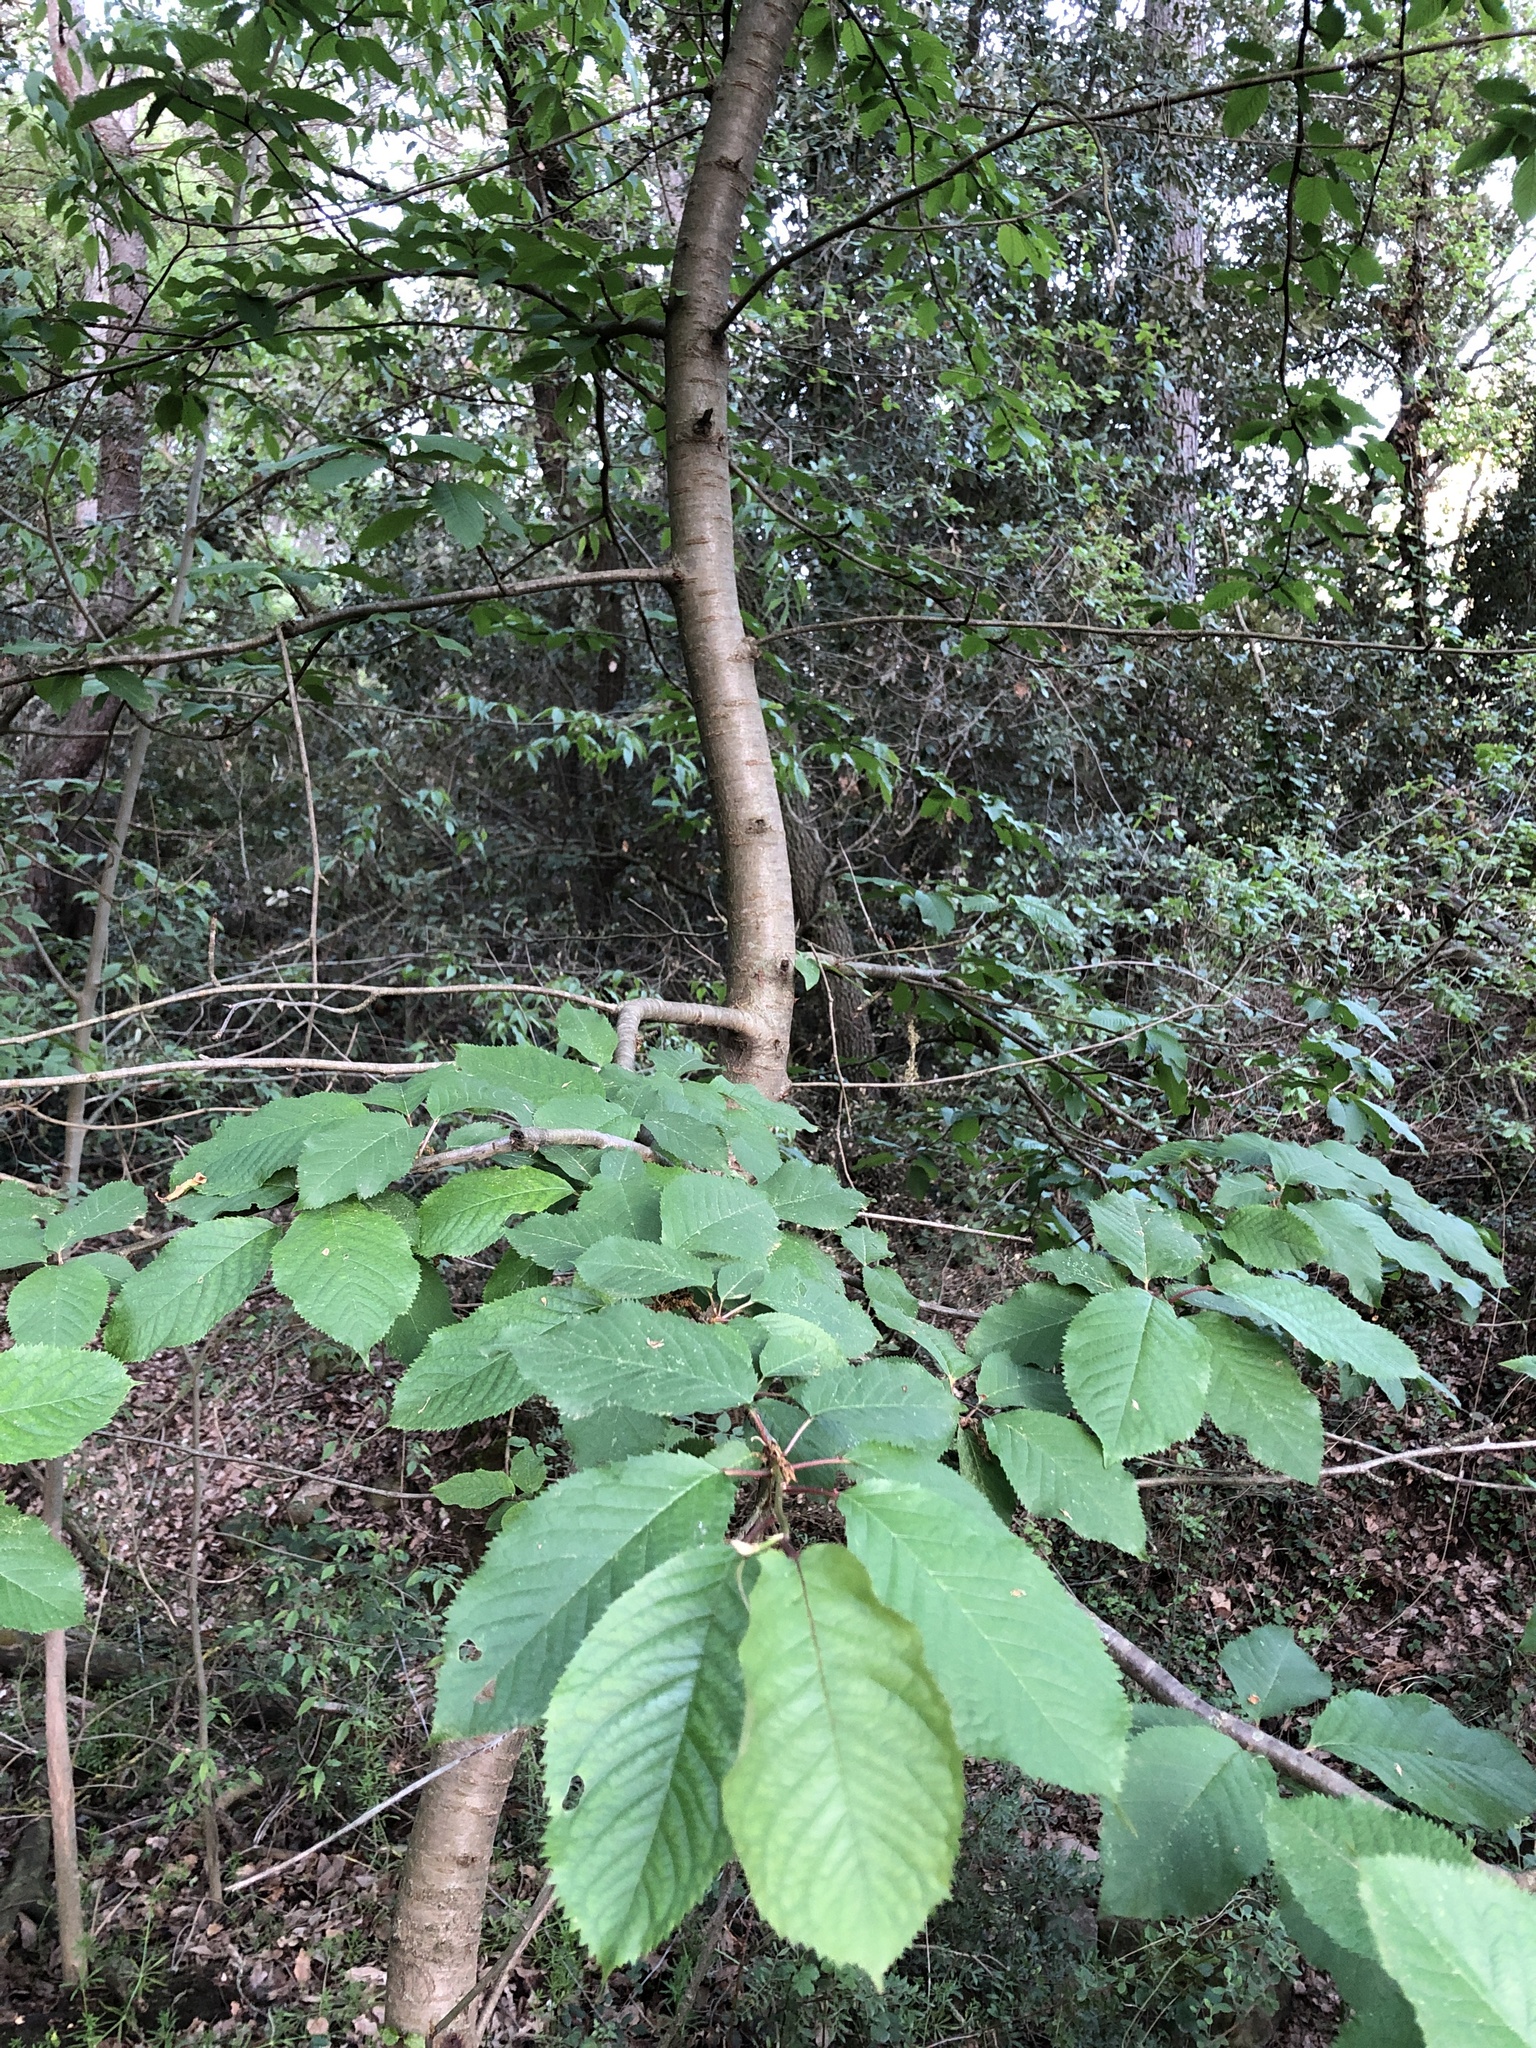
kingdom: Plantae
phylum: Tracheophyta
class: Magnoliopsida
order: Rosales
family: Rosaceae
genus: Prunus
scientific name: Prunus avium
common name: Sweet cherry
